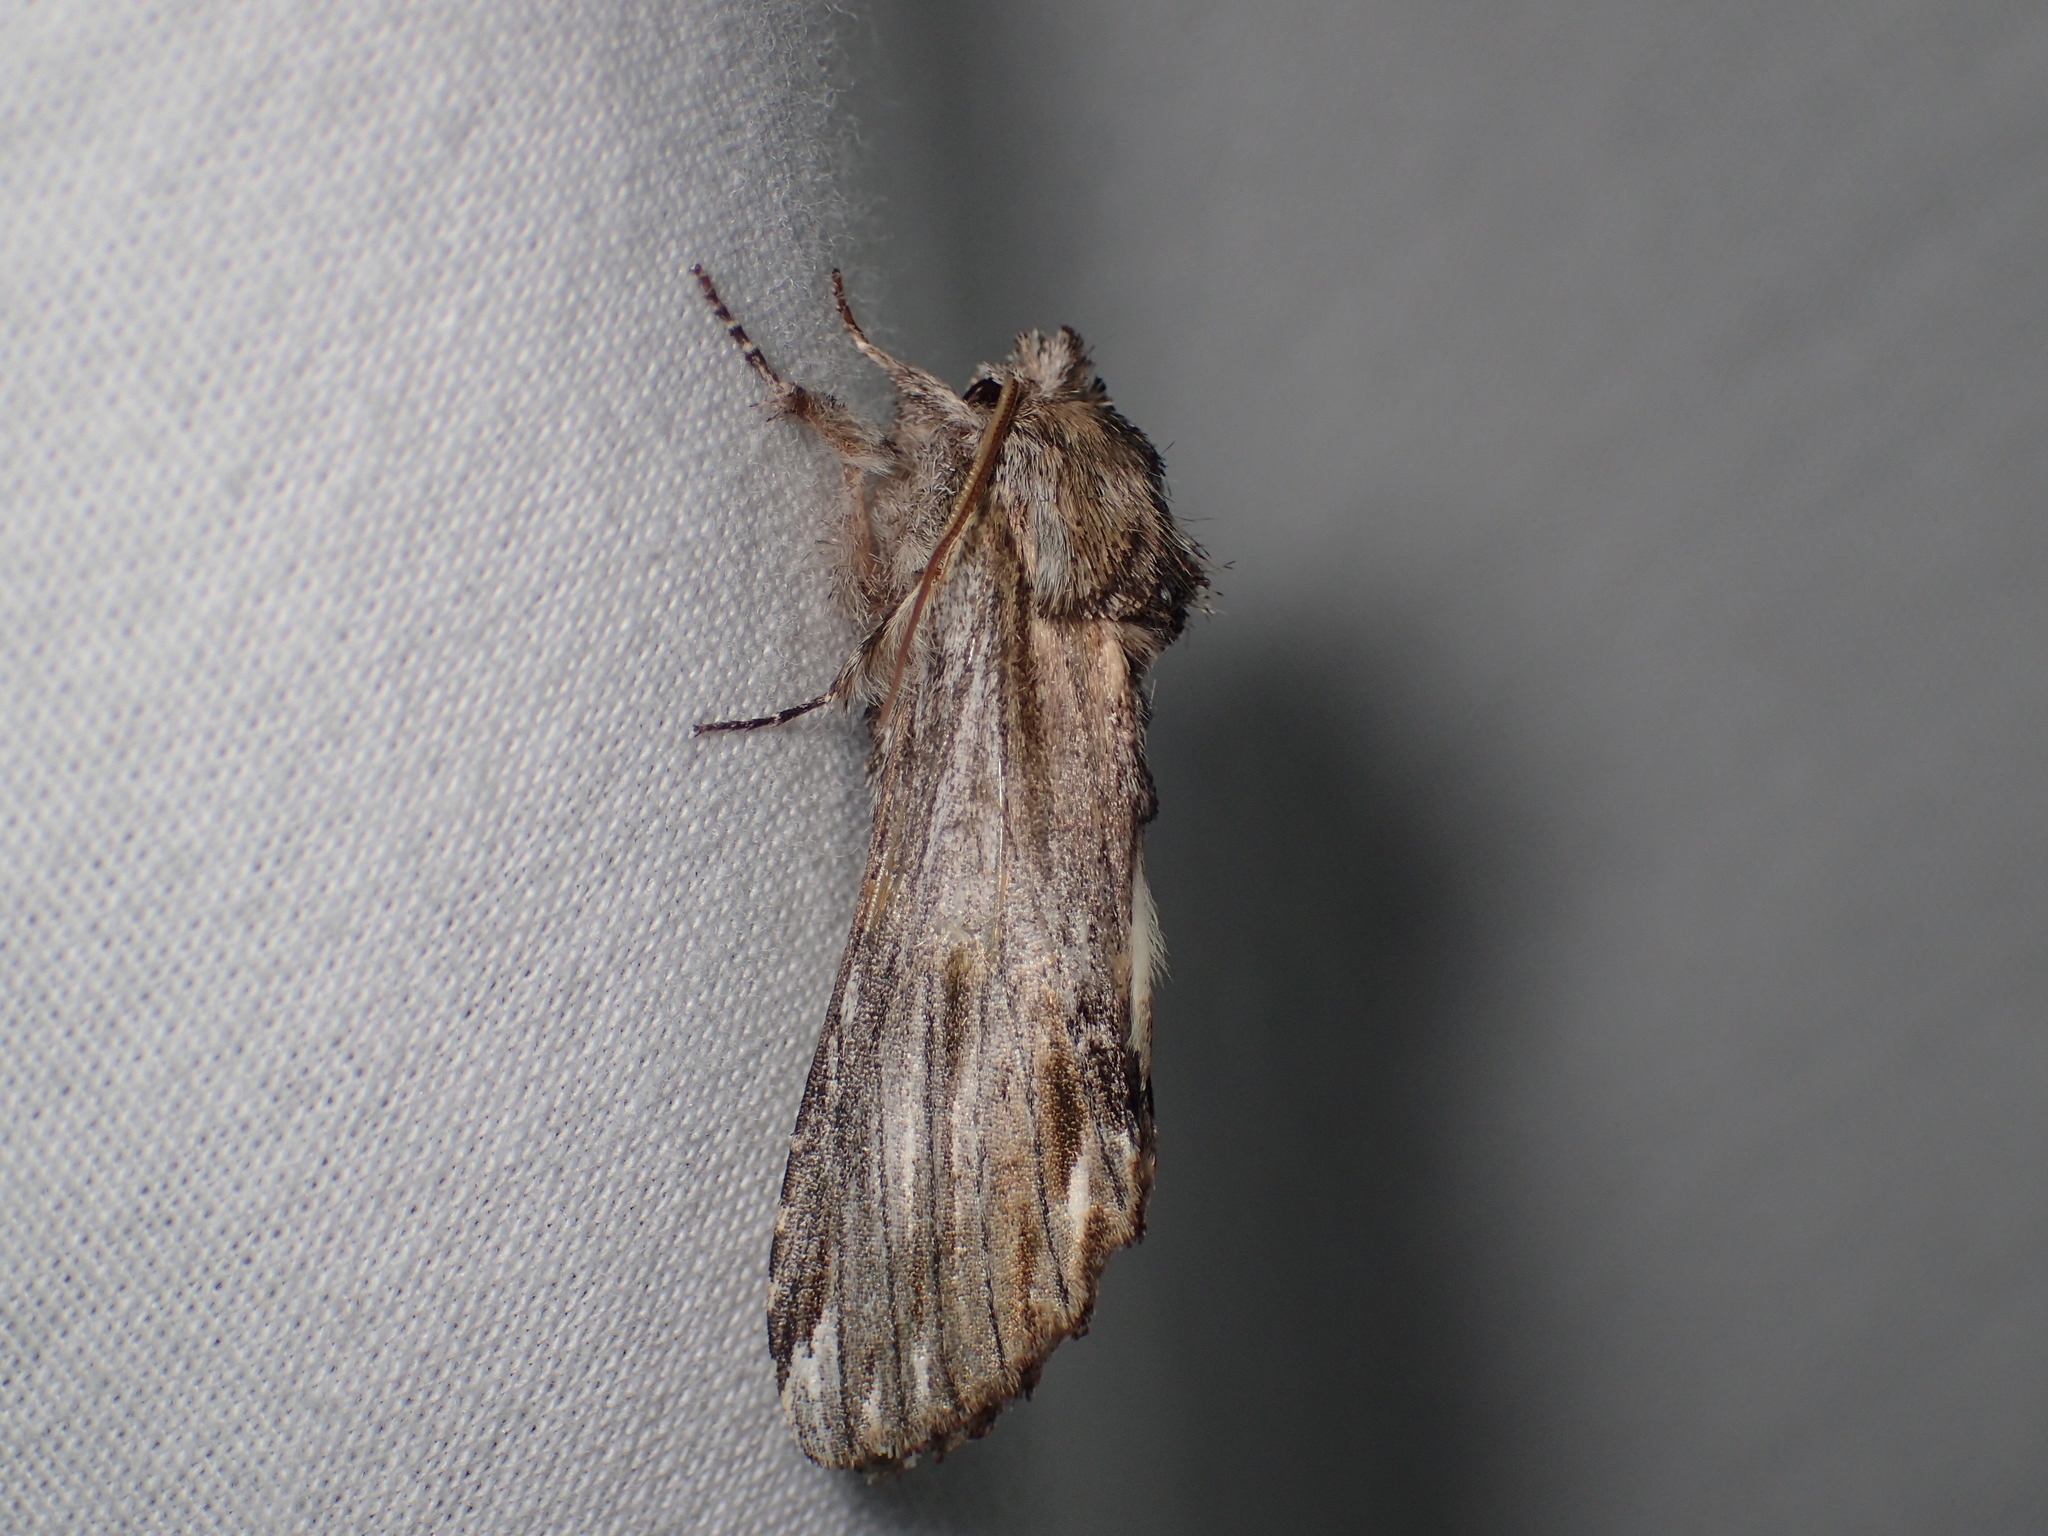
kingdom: Animalia
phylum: Arthropoda
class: Insecta
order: Lepidoptera
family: Notodontidae
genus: Oligocentria
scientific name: Oligocentria Ianassa lignicolor
